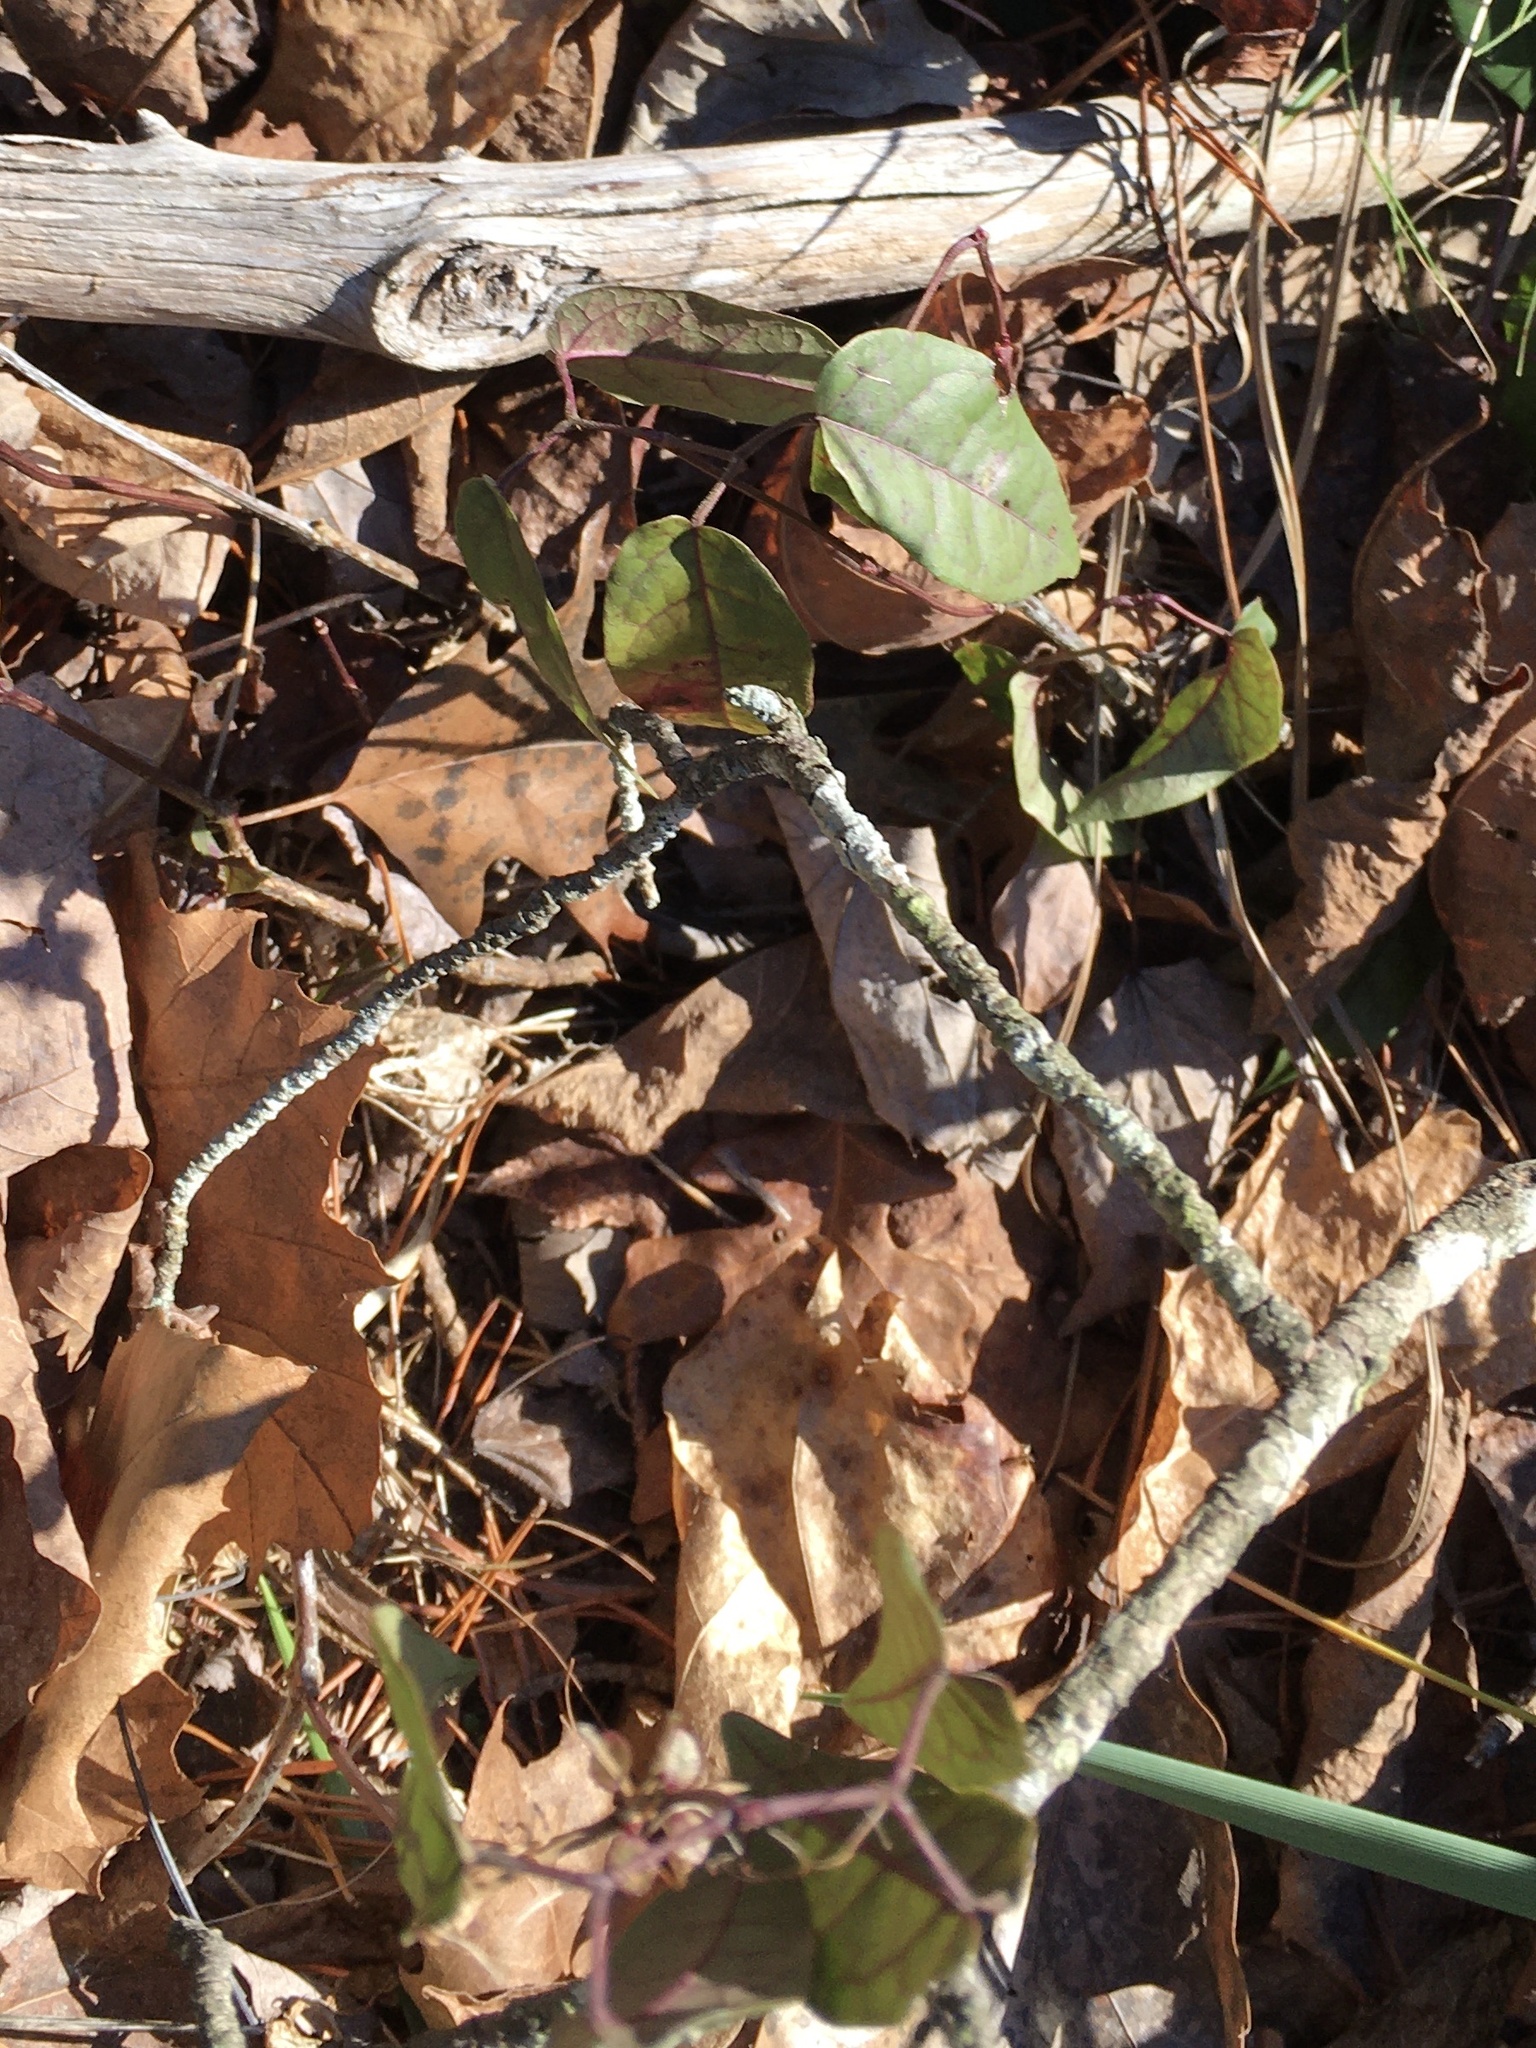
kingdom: Plantae
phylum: Tracheophyta
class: Magnoliopsida
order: Lamiales
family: Bignoniaceae
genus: Bignonia
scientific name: Bignonia capreolata
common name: Crossvine
